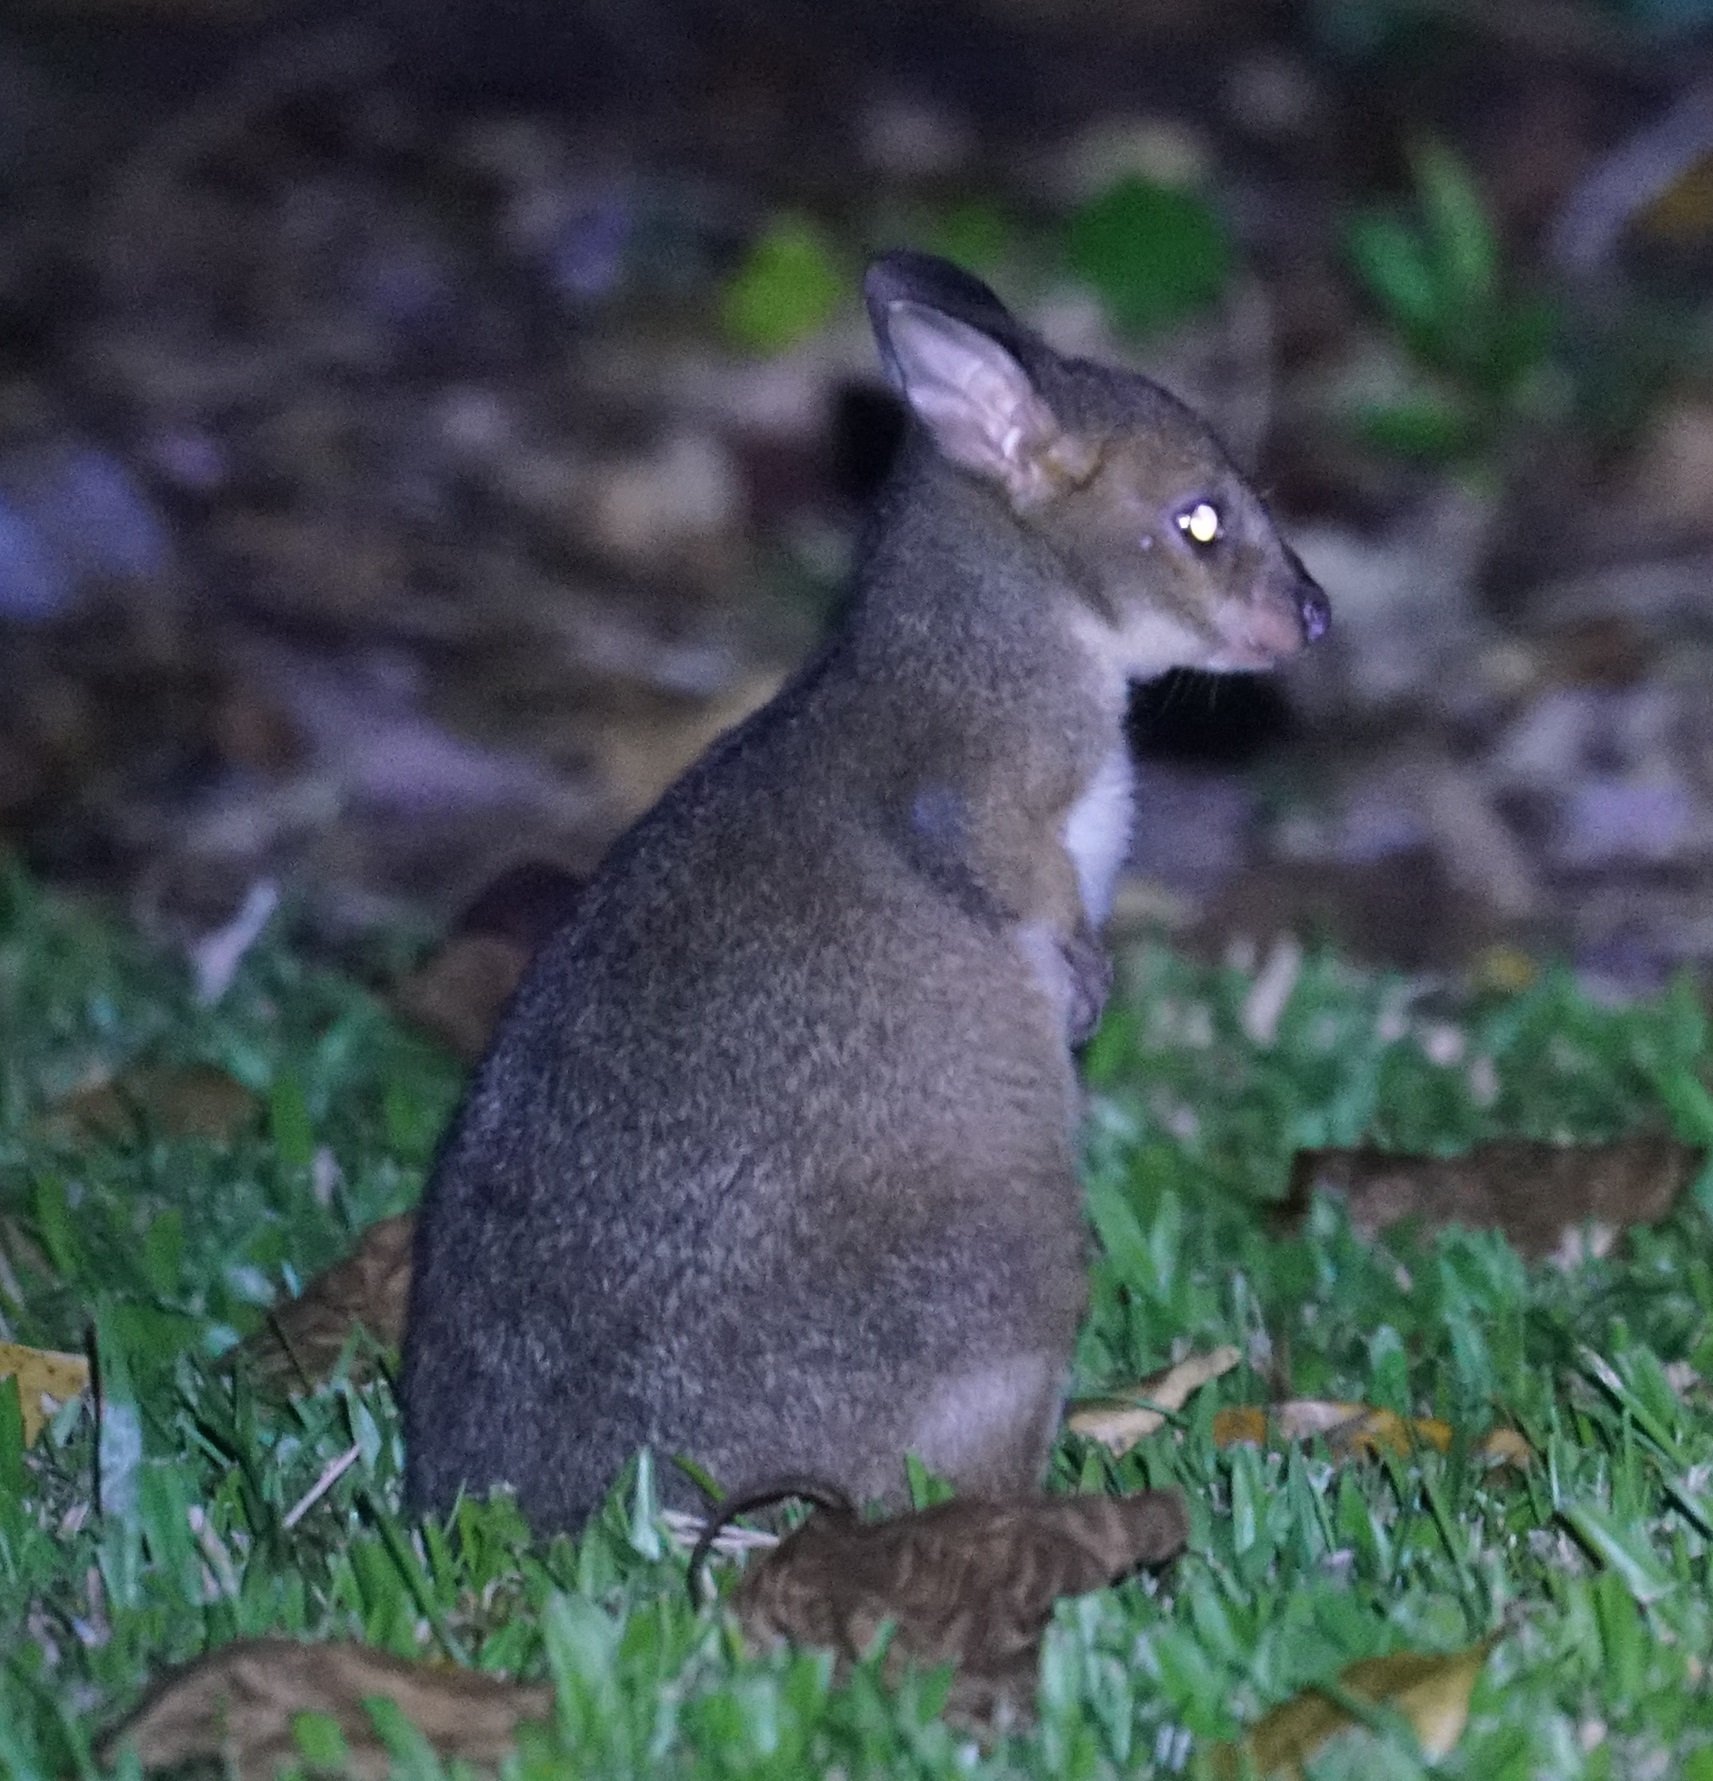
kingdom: Animalia
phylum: Chordata
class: Mammalia
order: Diprotodontia
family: Macropodidae
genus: Thylogale
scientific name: Thylogale stigmatica
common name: Red-legged pademelon
